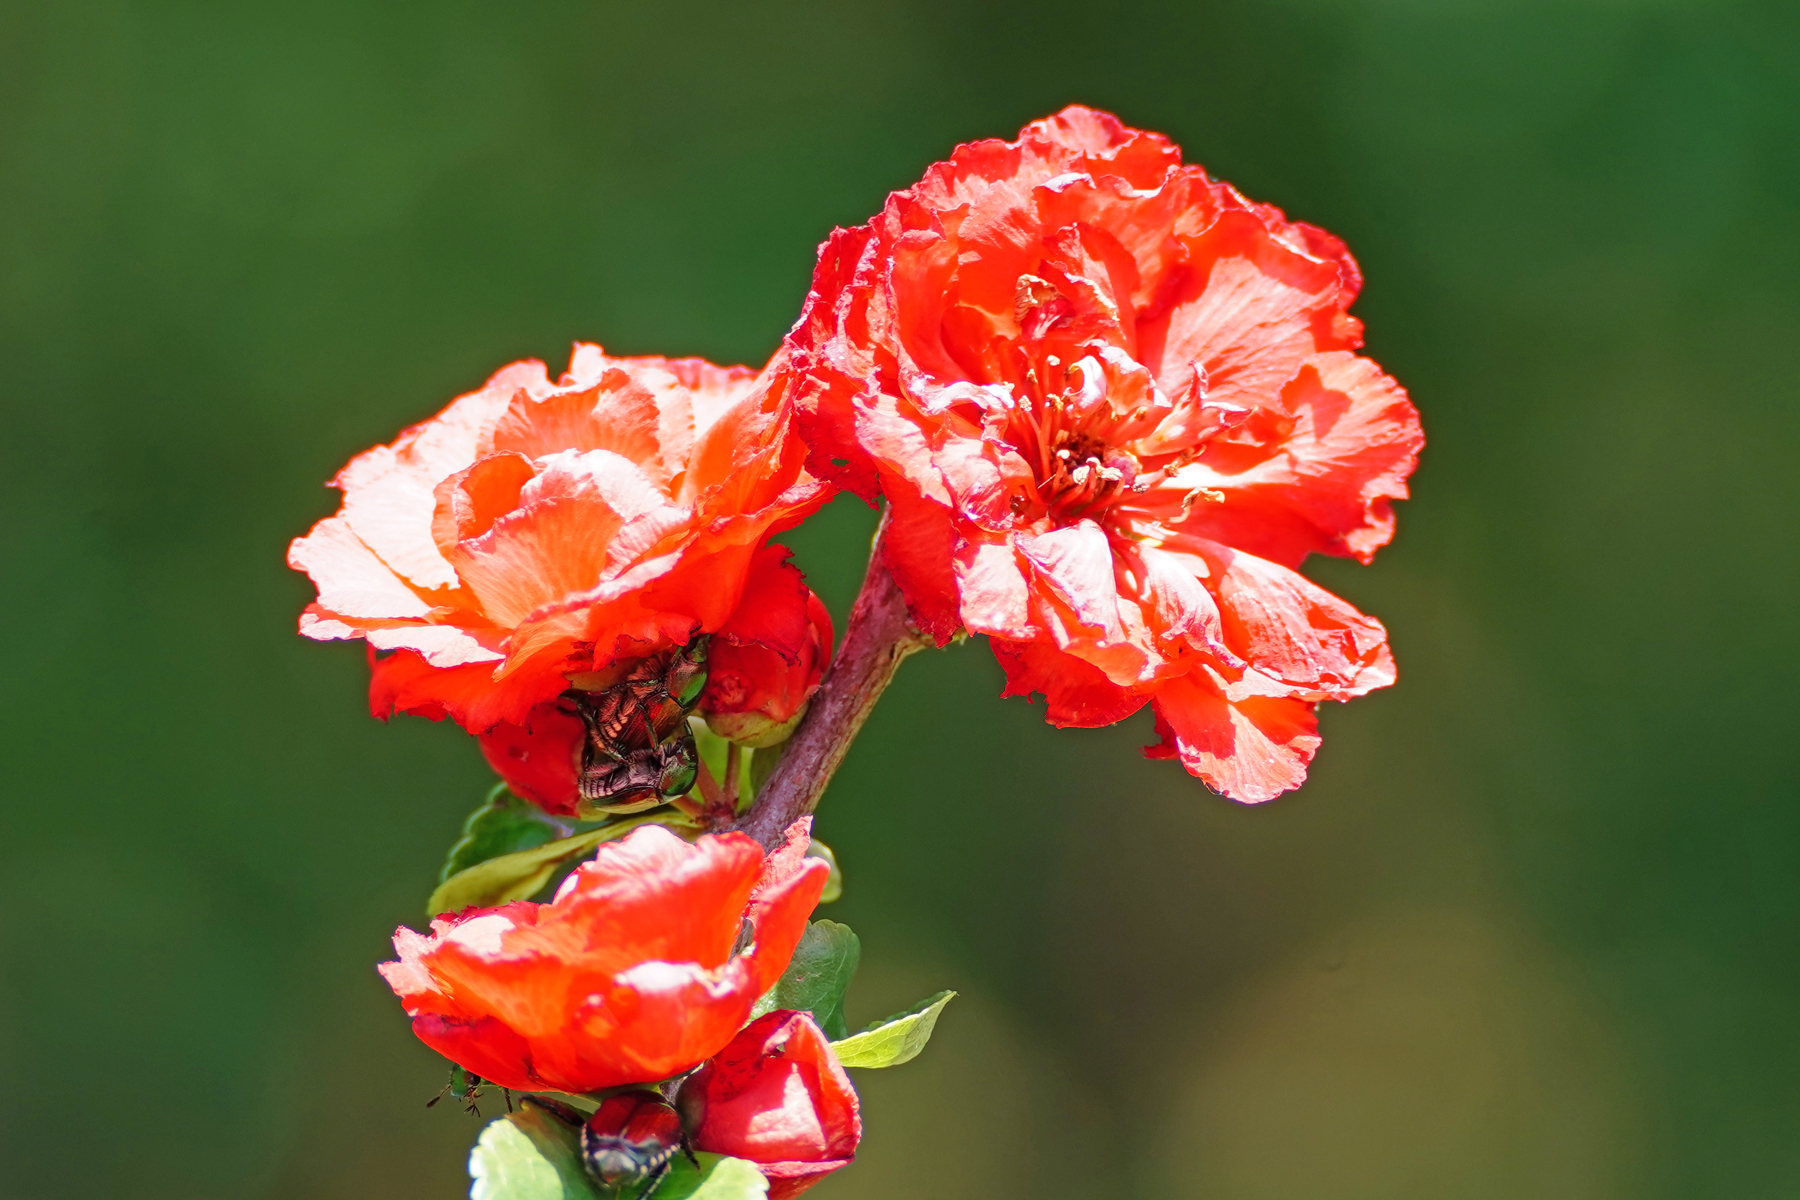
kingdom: Animalia
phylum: Arthropoda
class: Insecta
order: Coleoptera
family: Scarabaeidae
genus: Popillia
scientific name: Popillia japonica
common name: Japanese beetle
